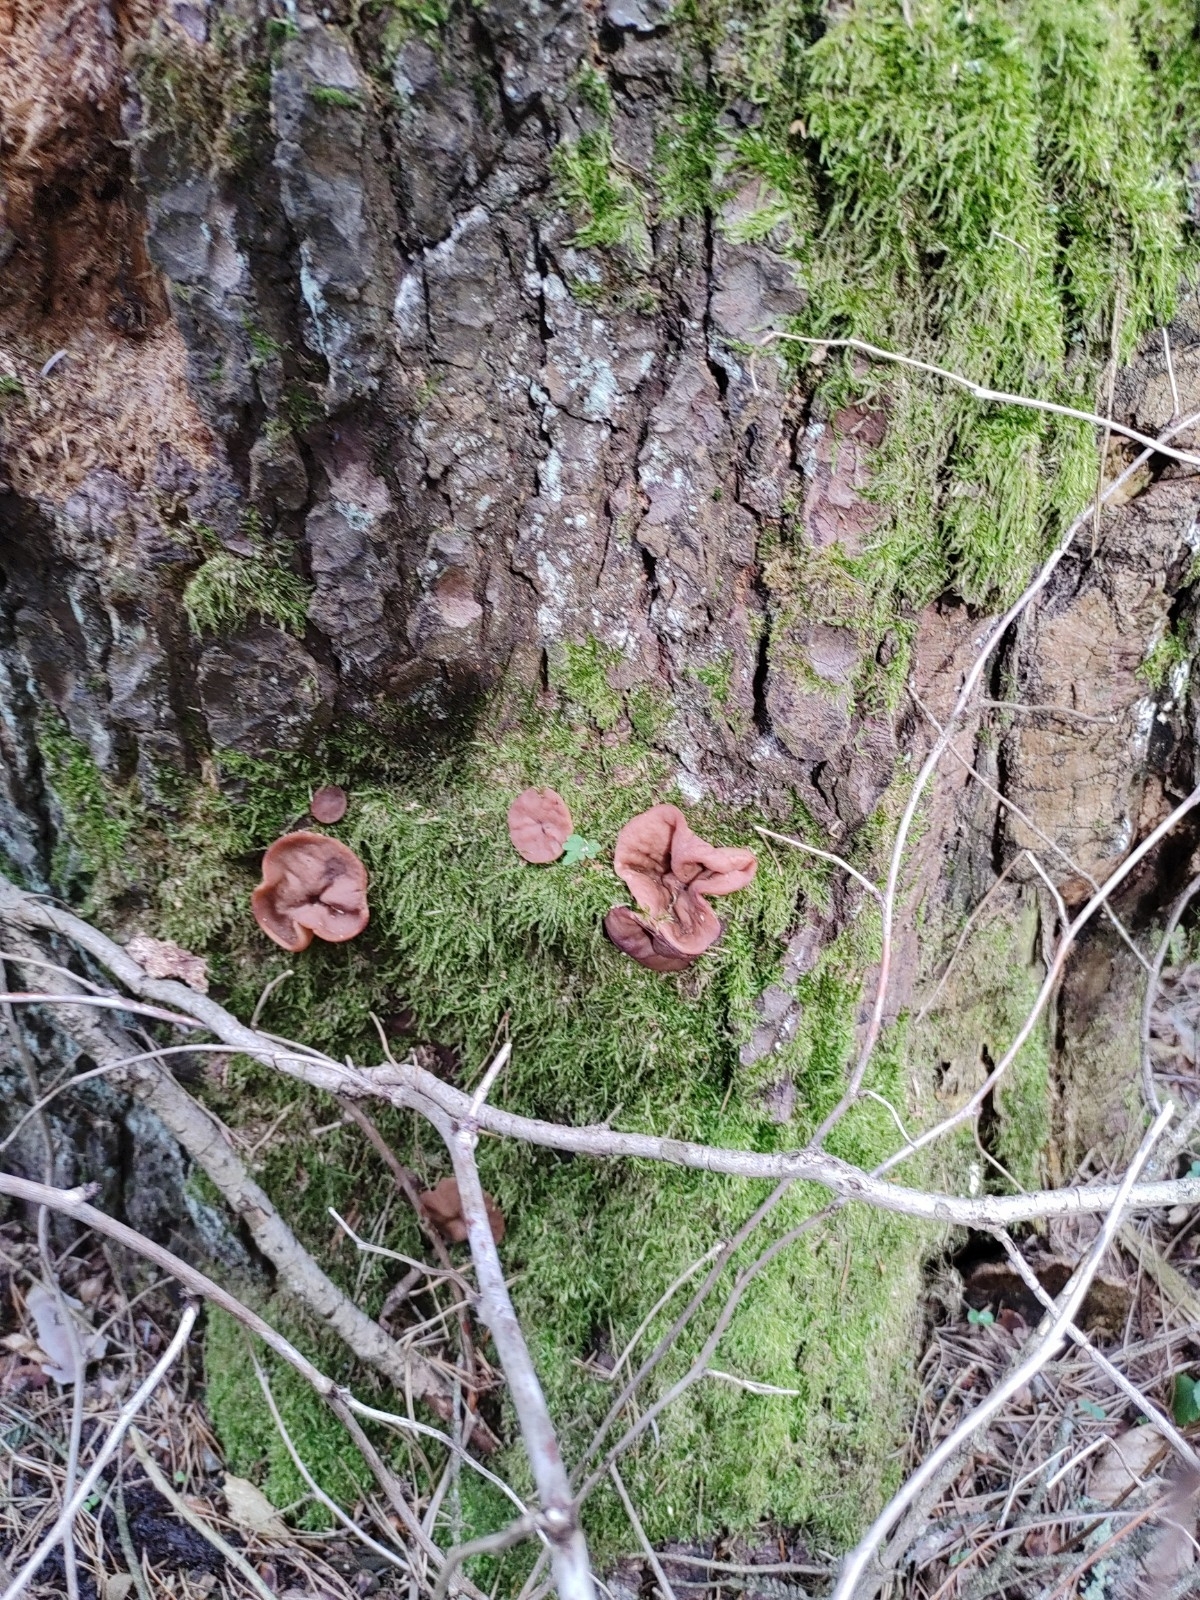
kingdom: Fungi
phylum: Ascomycota
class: Pezizomycetes
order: Pezizales
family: Discinaceae
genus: Discina
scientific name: Discina
